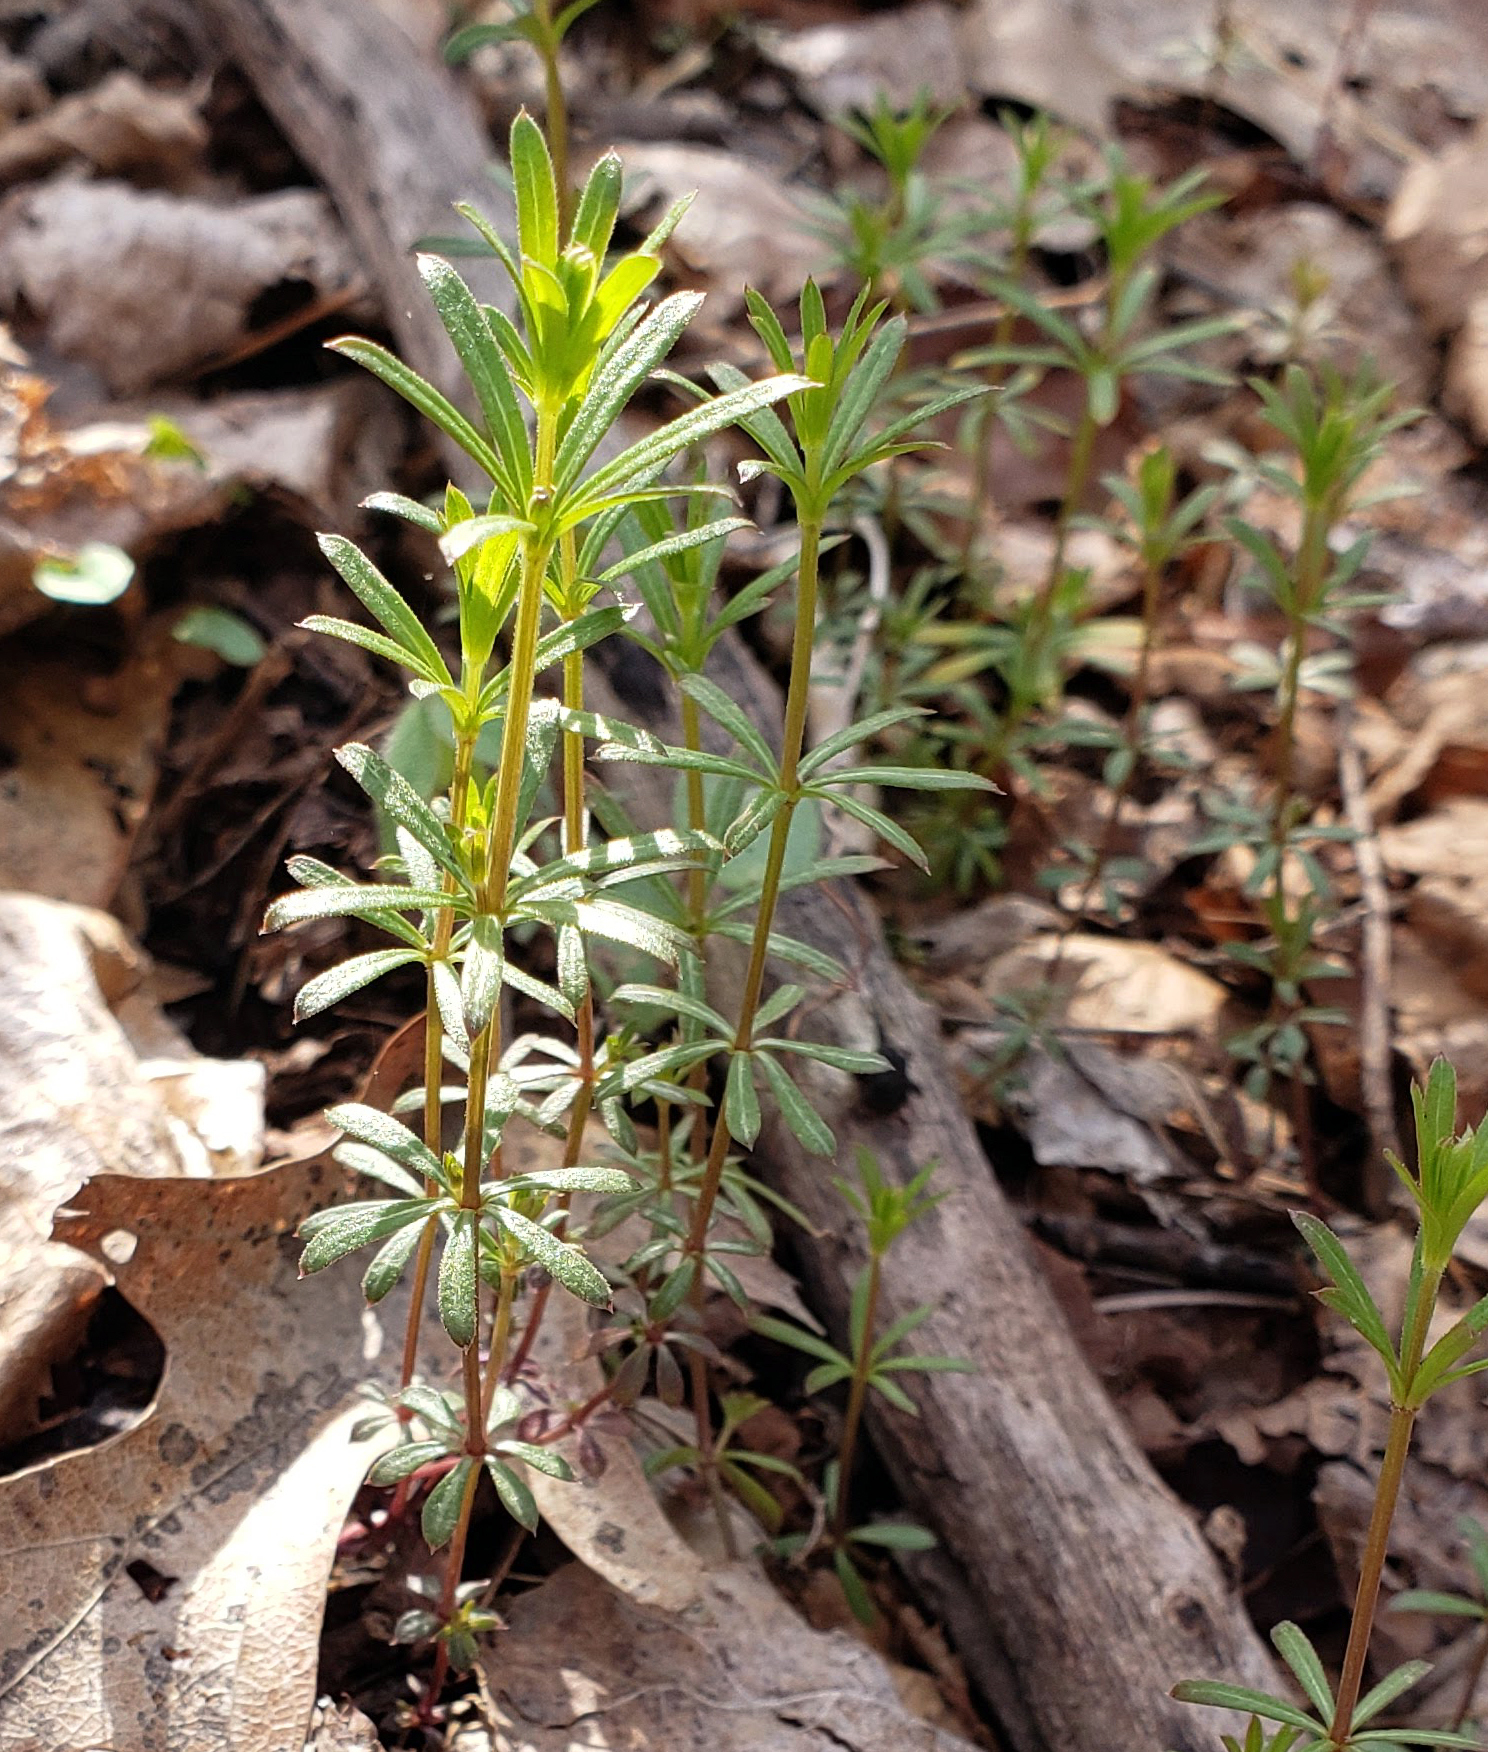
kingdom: Plantae
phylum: Tracheophyta
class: Magnoliopsida
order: Gentianales
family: Rubiaceae
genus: Galium
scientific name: Galium concinnum
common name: Shining bedstraw
